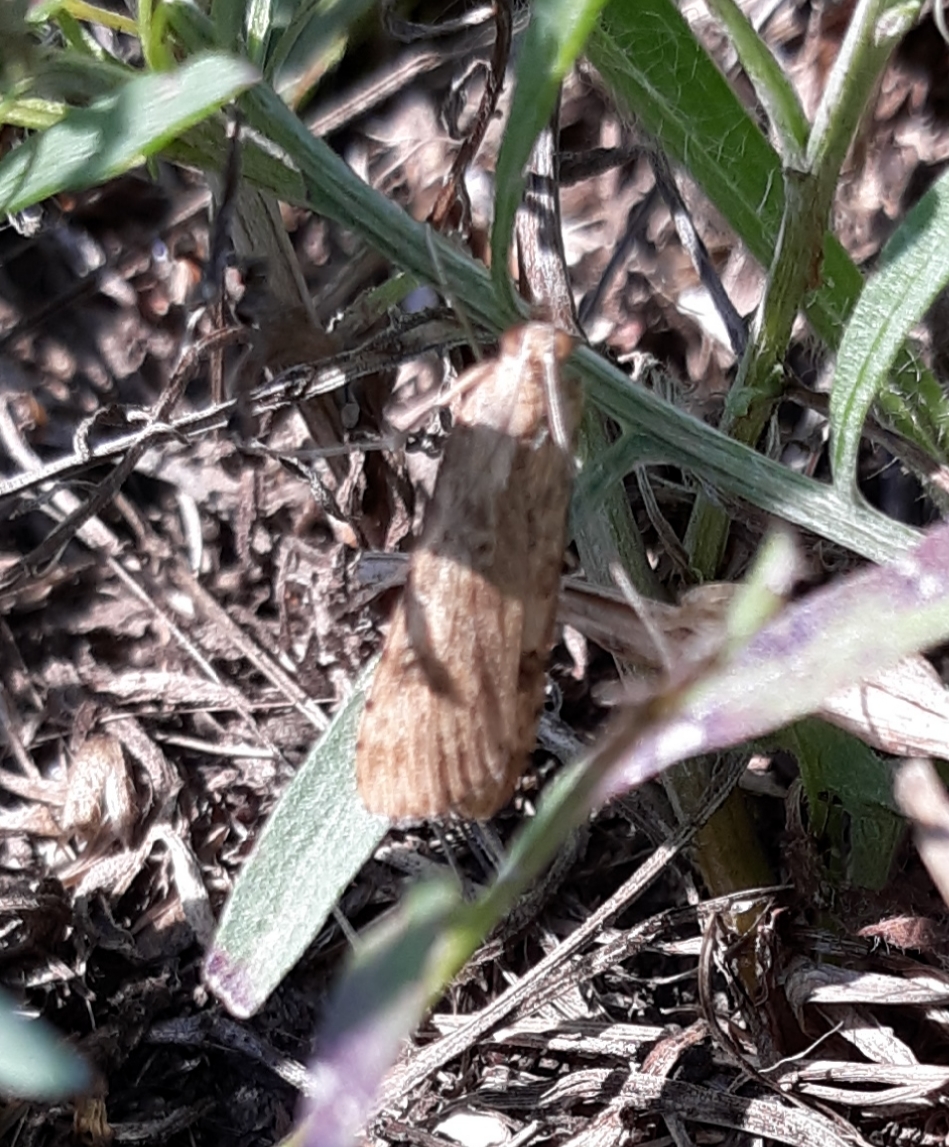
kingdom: Animalia
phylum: Arthropoda
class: Insecta
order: Lepidoptera
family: Crambidae
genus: Nomophila
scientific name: Nomophila nearctica
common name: American rush veneer
